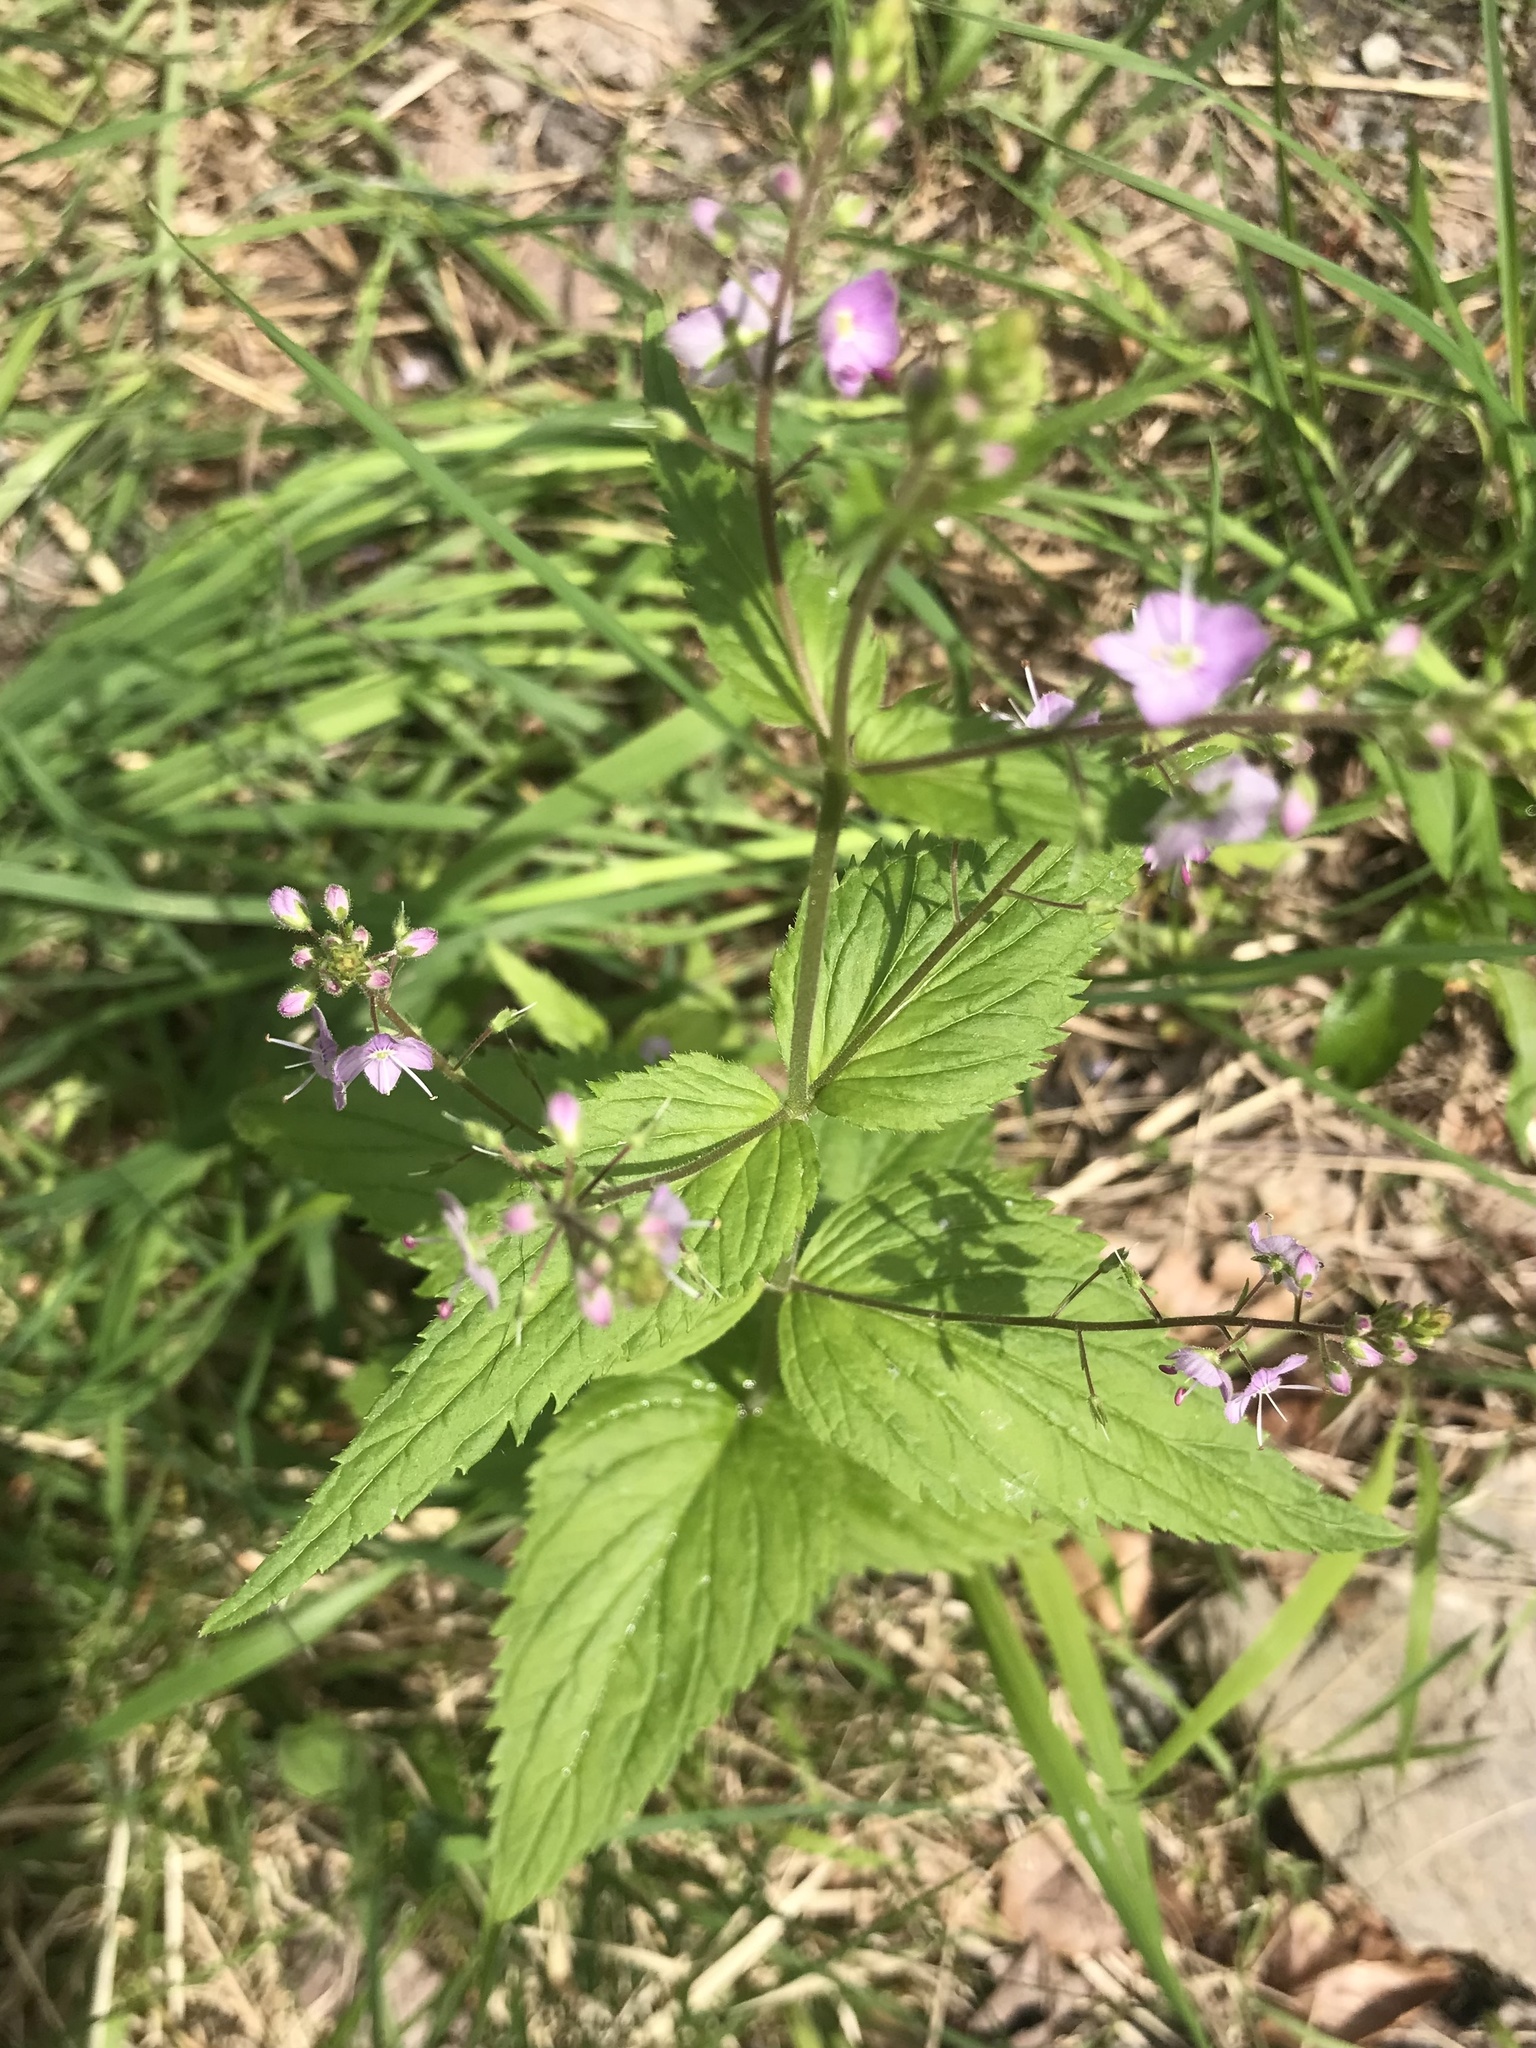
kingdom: Plantae
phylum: Tracheophyta
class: Magnoliopsida
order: Lamiales
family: Plantaginaceae
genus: Veronica
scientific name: Veronica urticifolia
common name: Nettle-leaf speedwell
